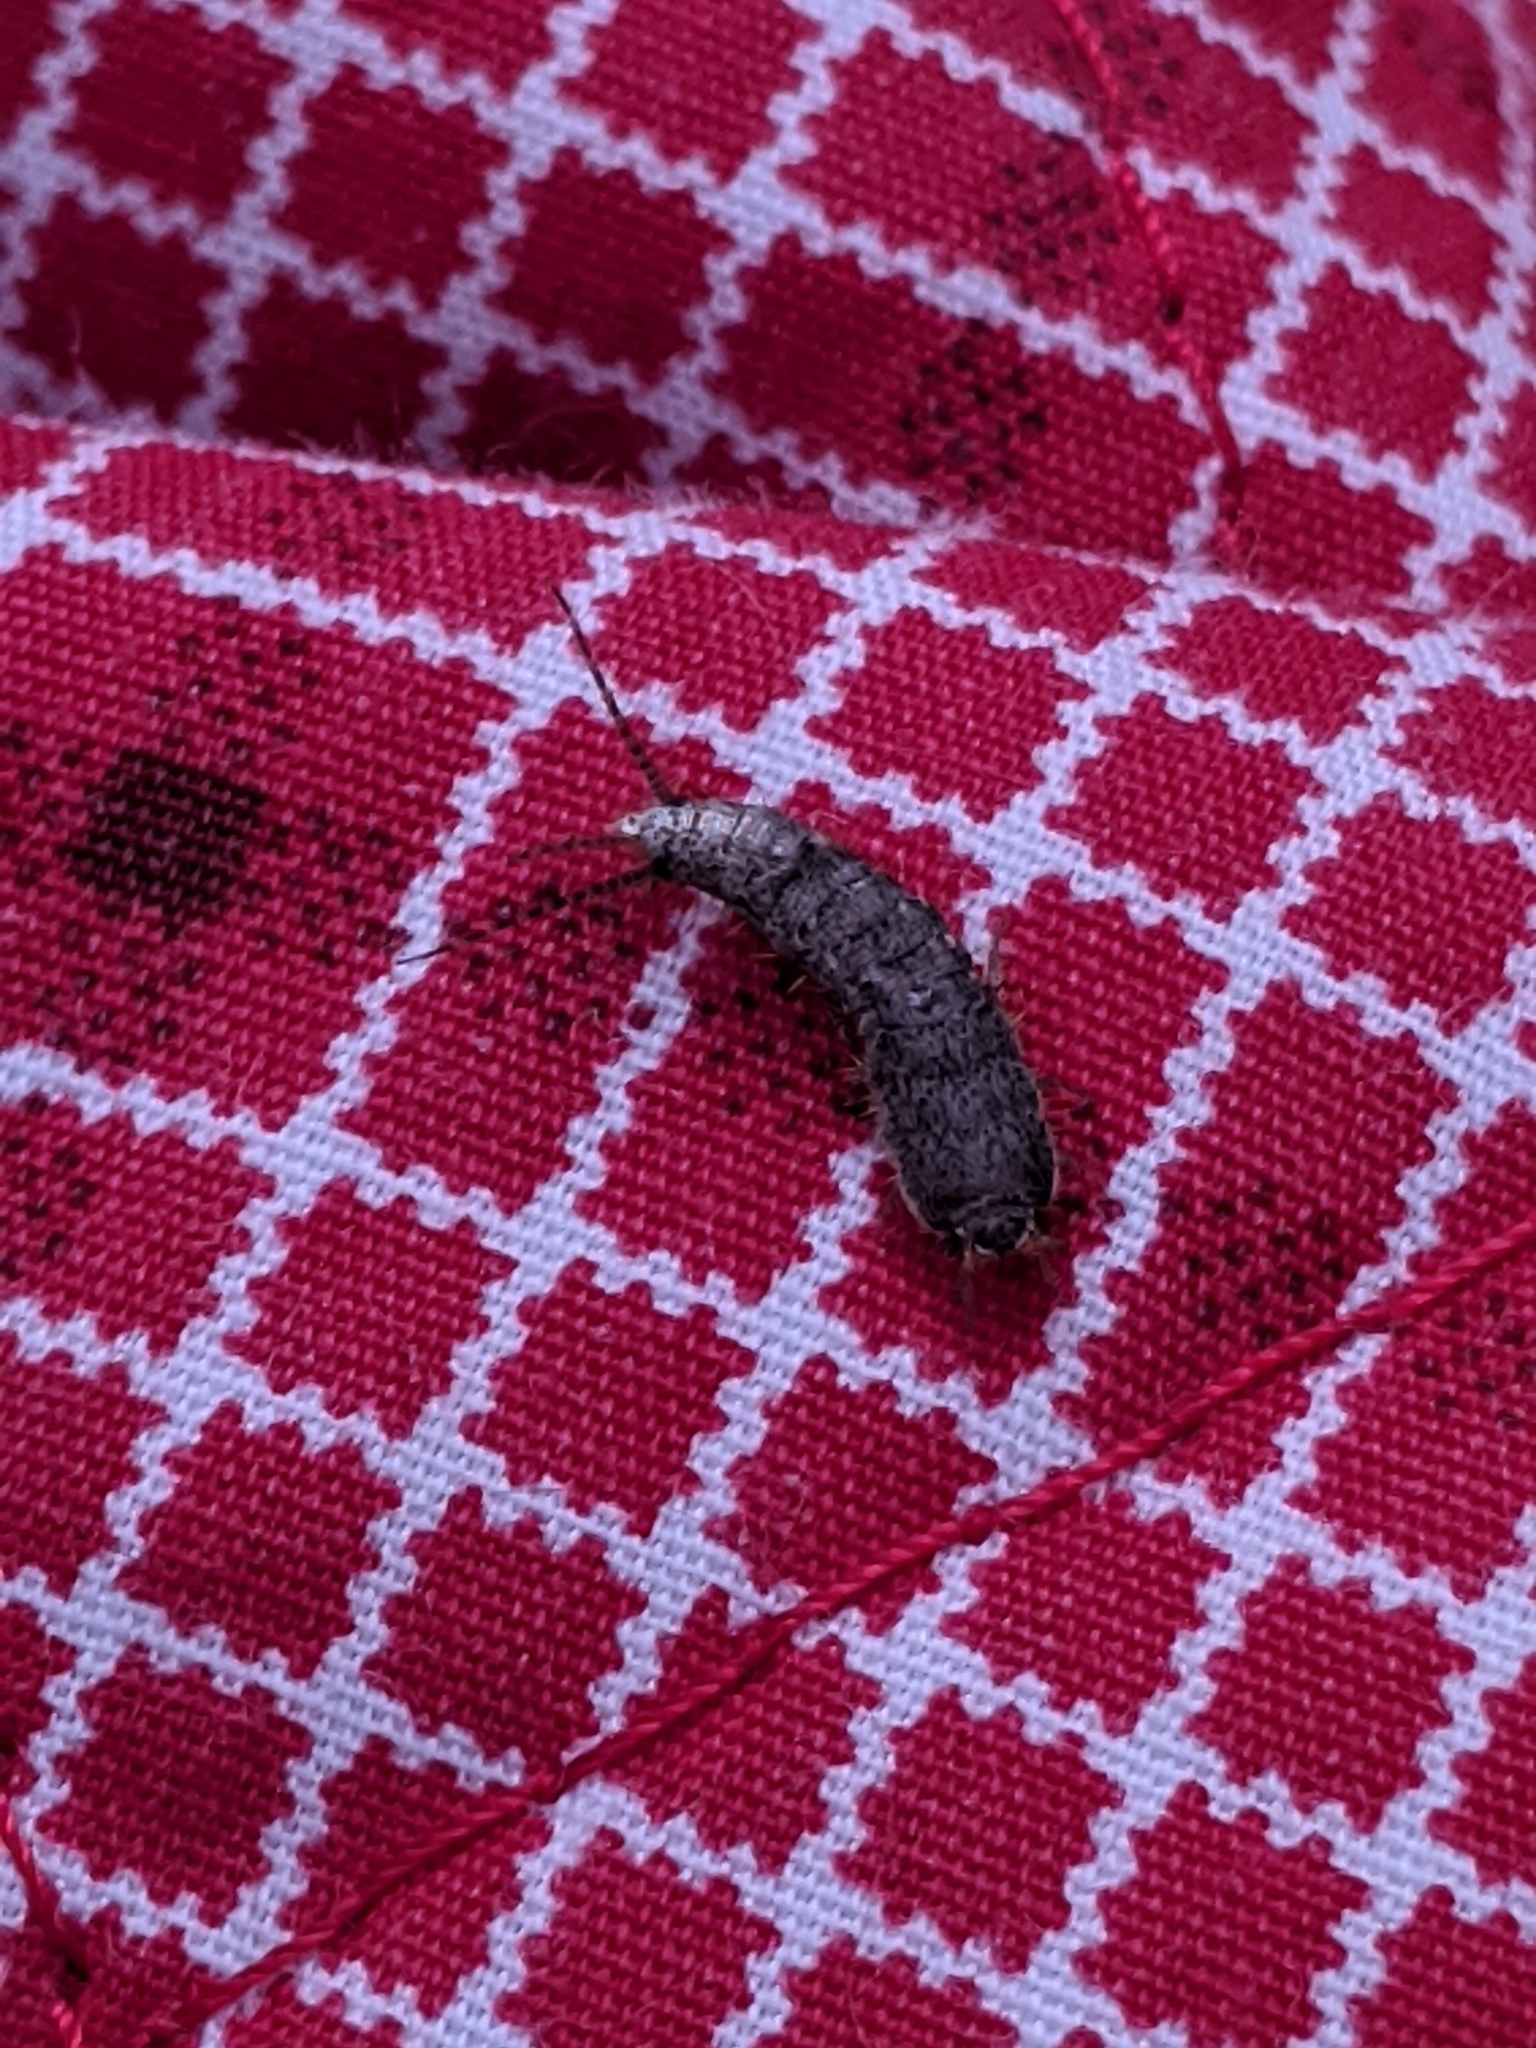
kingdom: Animalia
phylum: Arthropoda
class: Insecta
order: Zygentoma
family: Lepismatidae
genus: Allacrotelsa
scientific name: Allacrotelsa spinulata
